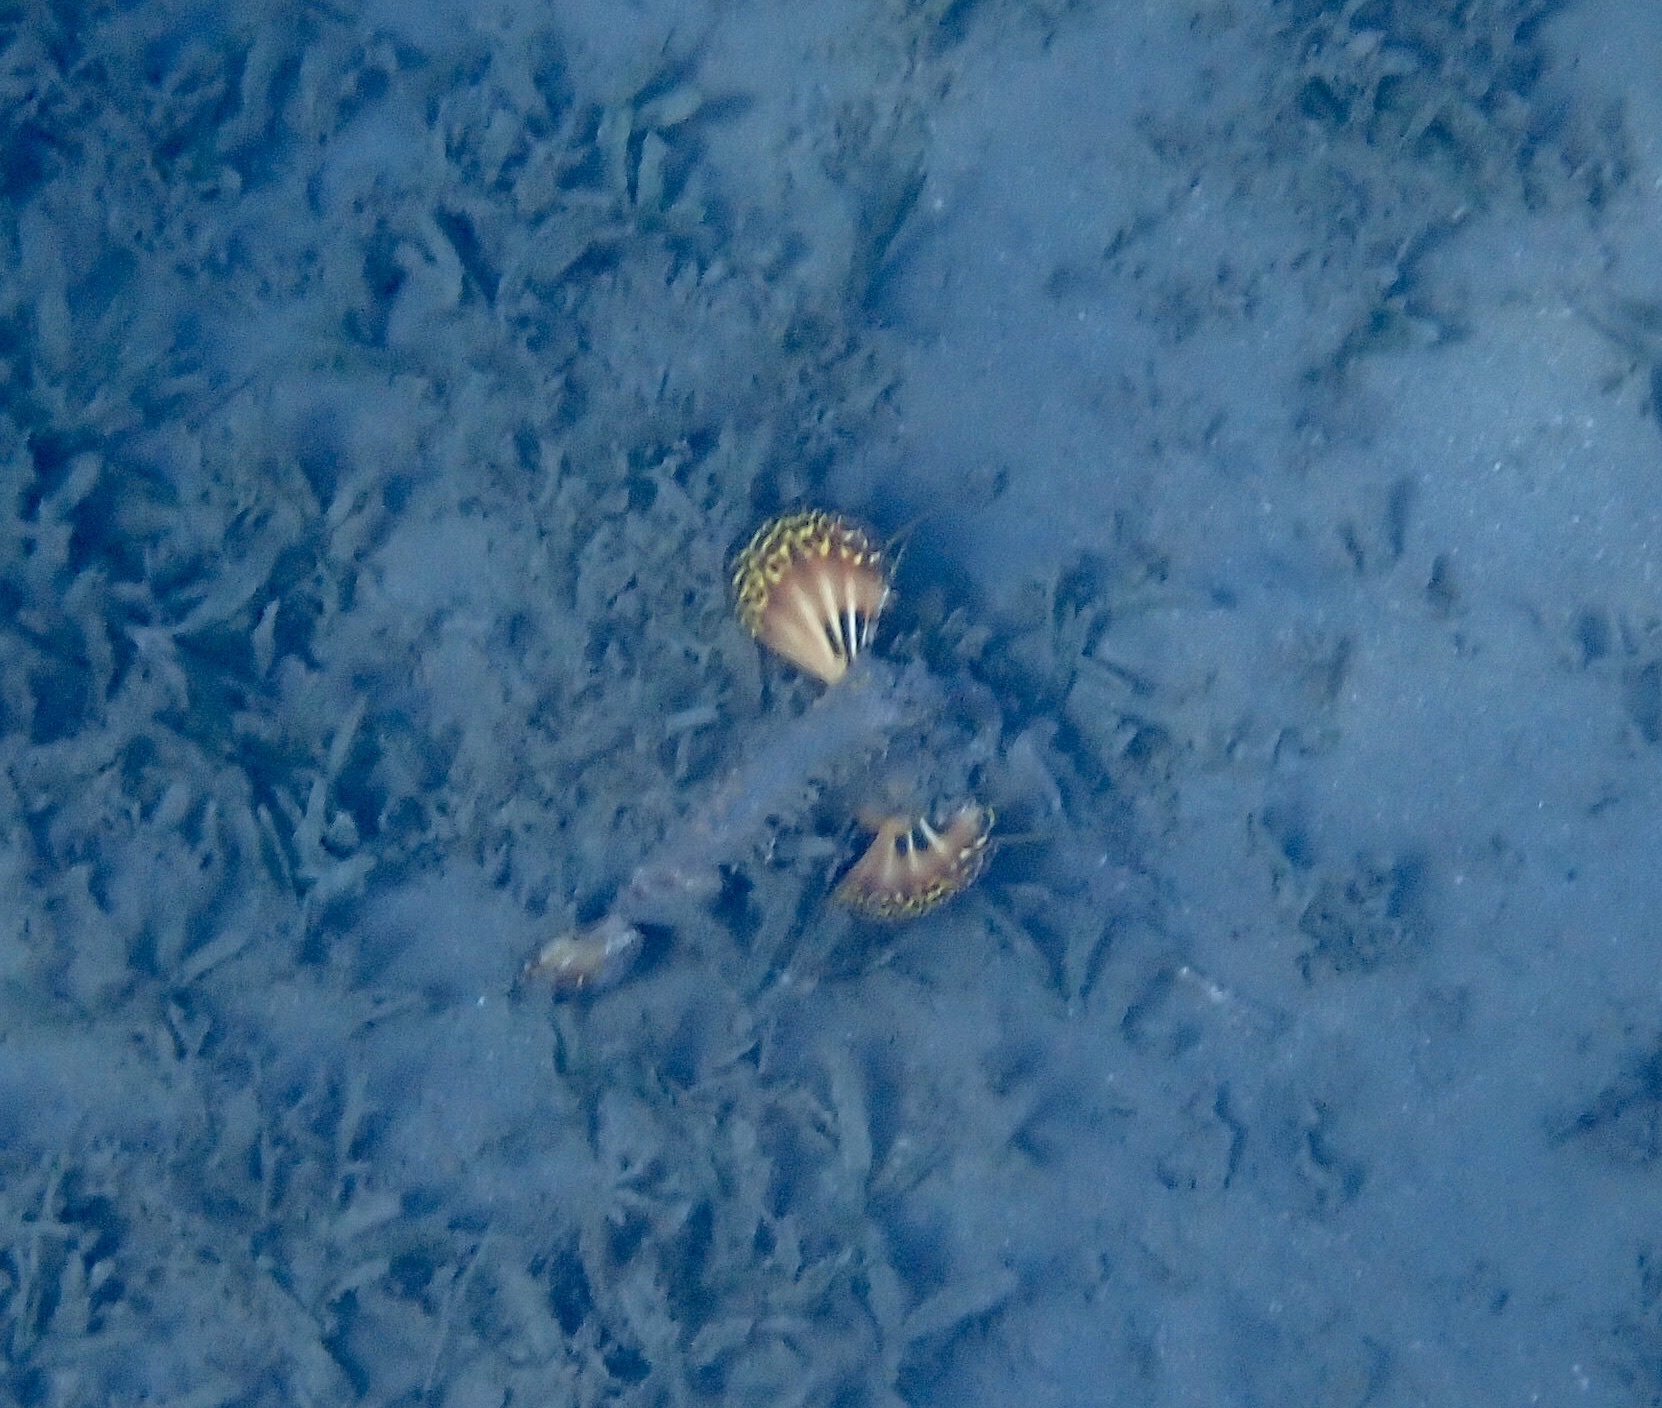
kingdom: Animalia
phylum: Chordata
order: Scorpaeniformes
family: Synanceiidae
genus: Inimicus
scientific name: Inimicus filamentosus
